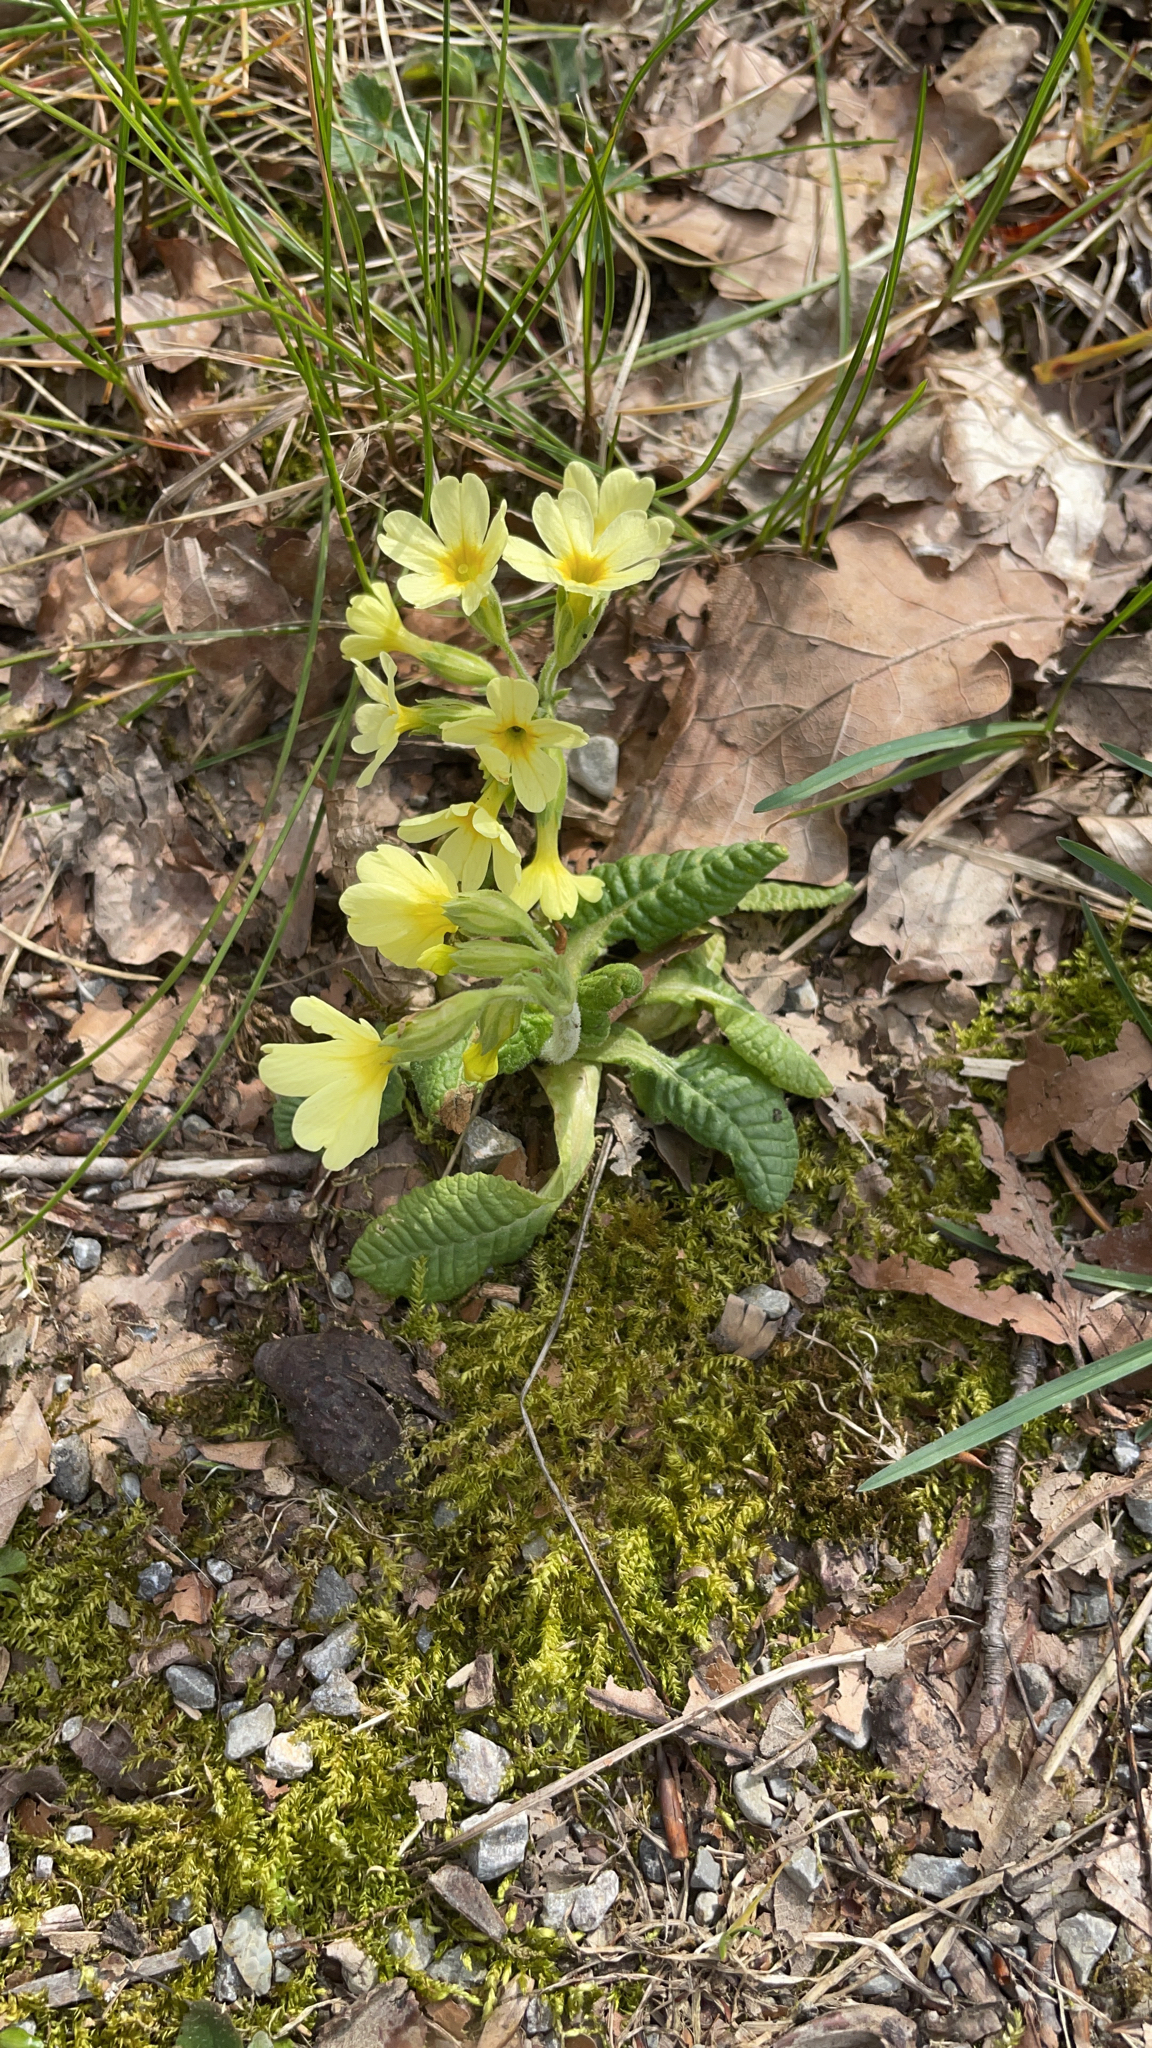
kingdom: Plantae
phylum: Tracheophyta
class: Magnoliopsida
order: Ericales
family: Primulaceae
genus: Primula
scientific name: Primula elatior
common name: Oxlip
